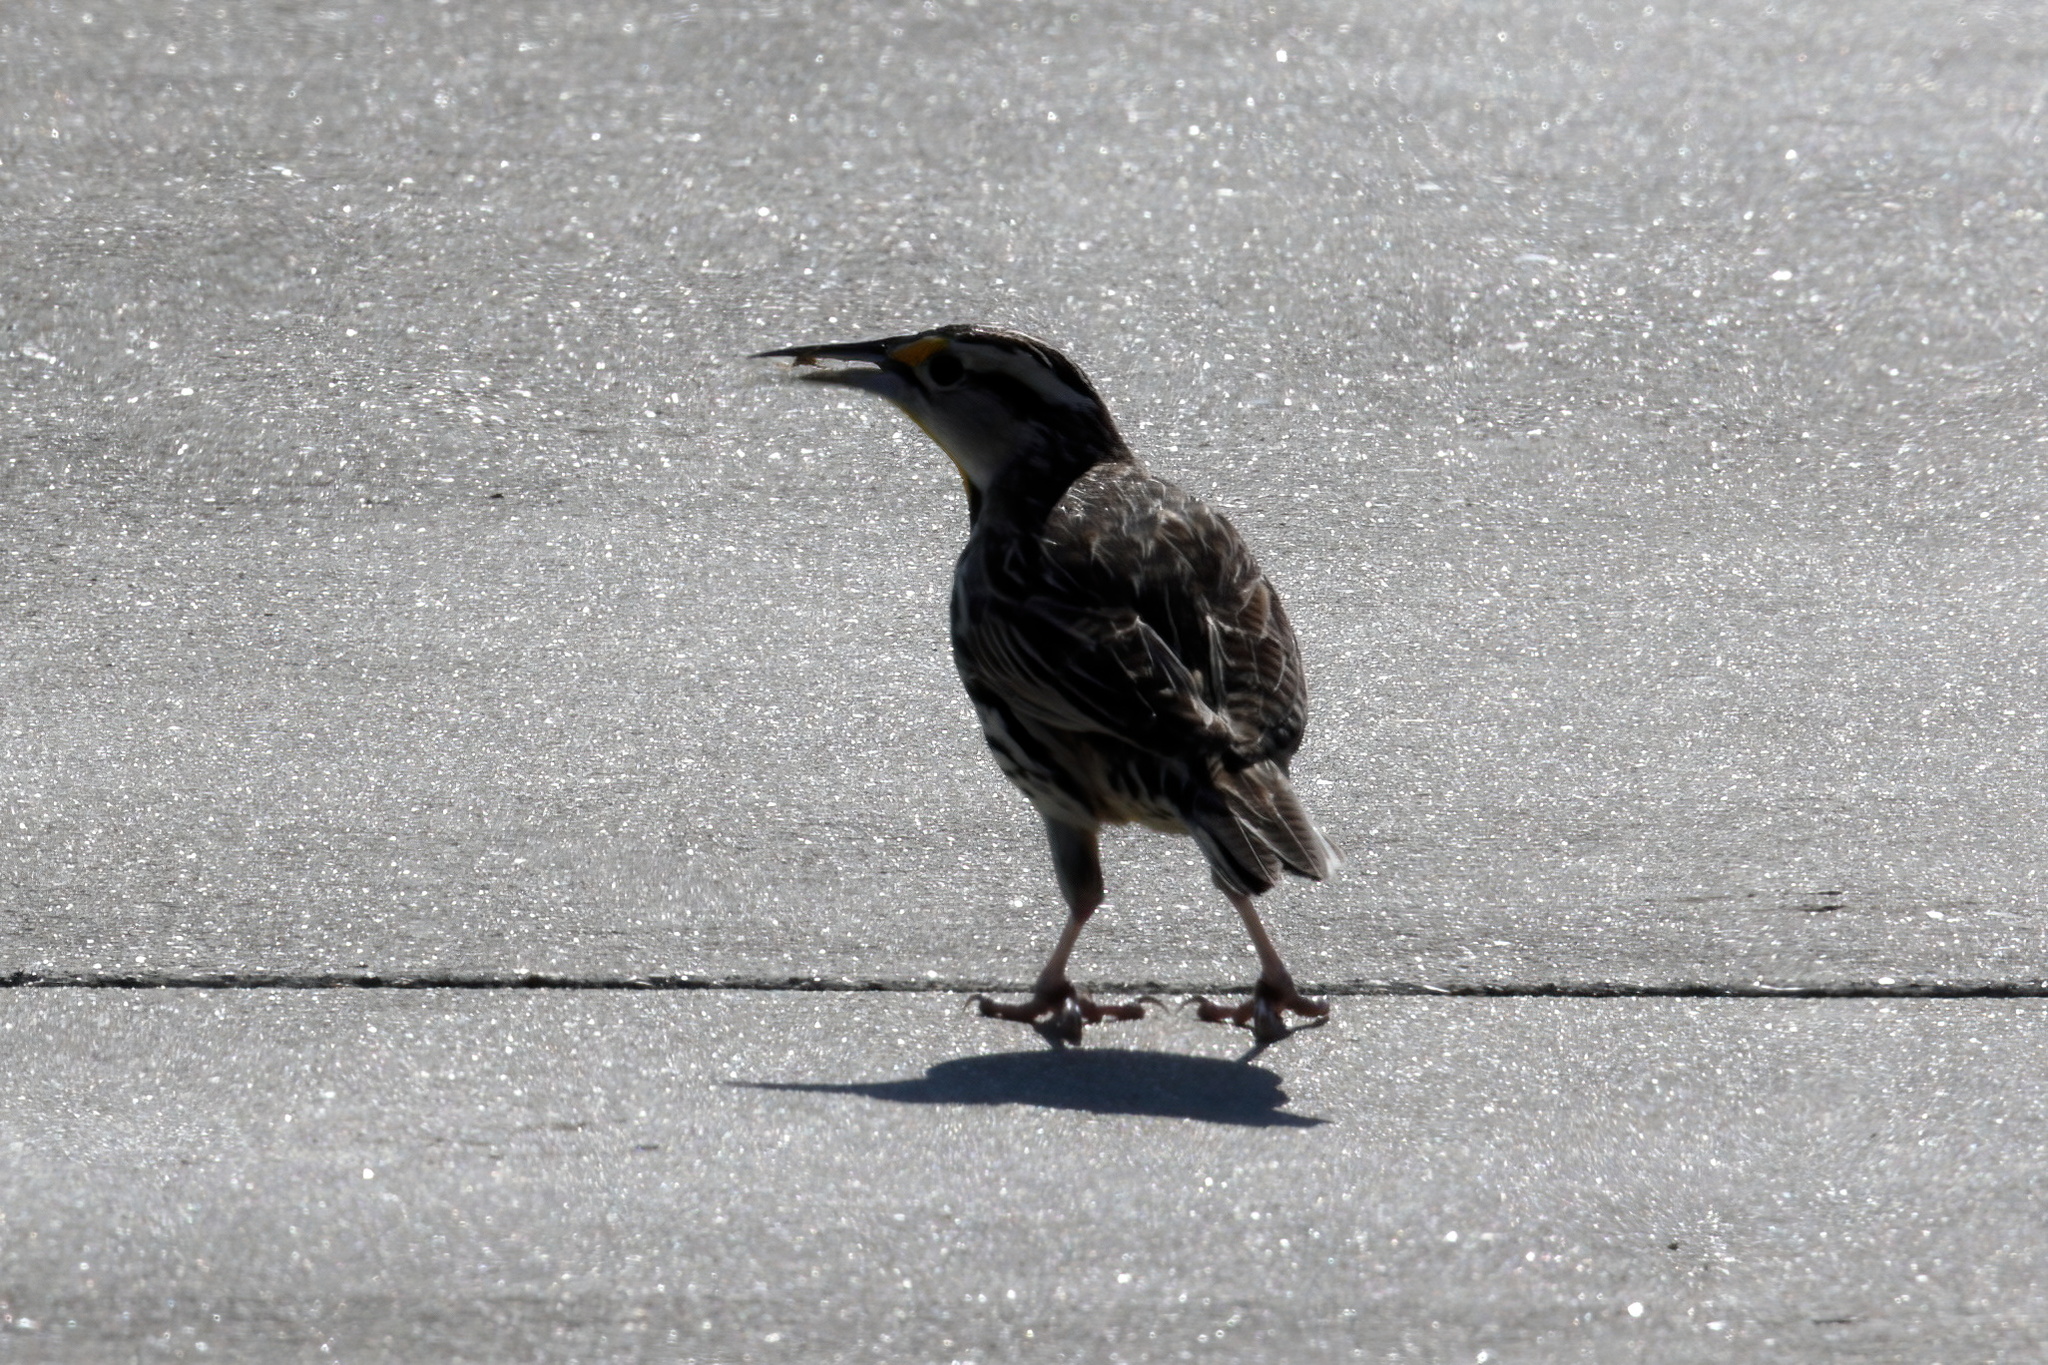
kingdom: Animalia
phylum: Chordata
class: Aves
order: Passeriformes
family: Icteridae
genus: Sturnella
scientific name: Sturnella magna
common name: Eastern meadowlark
